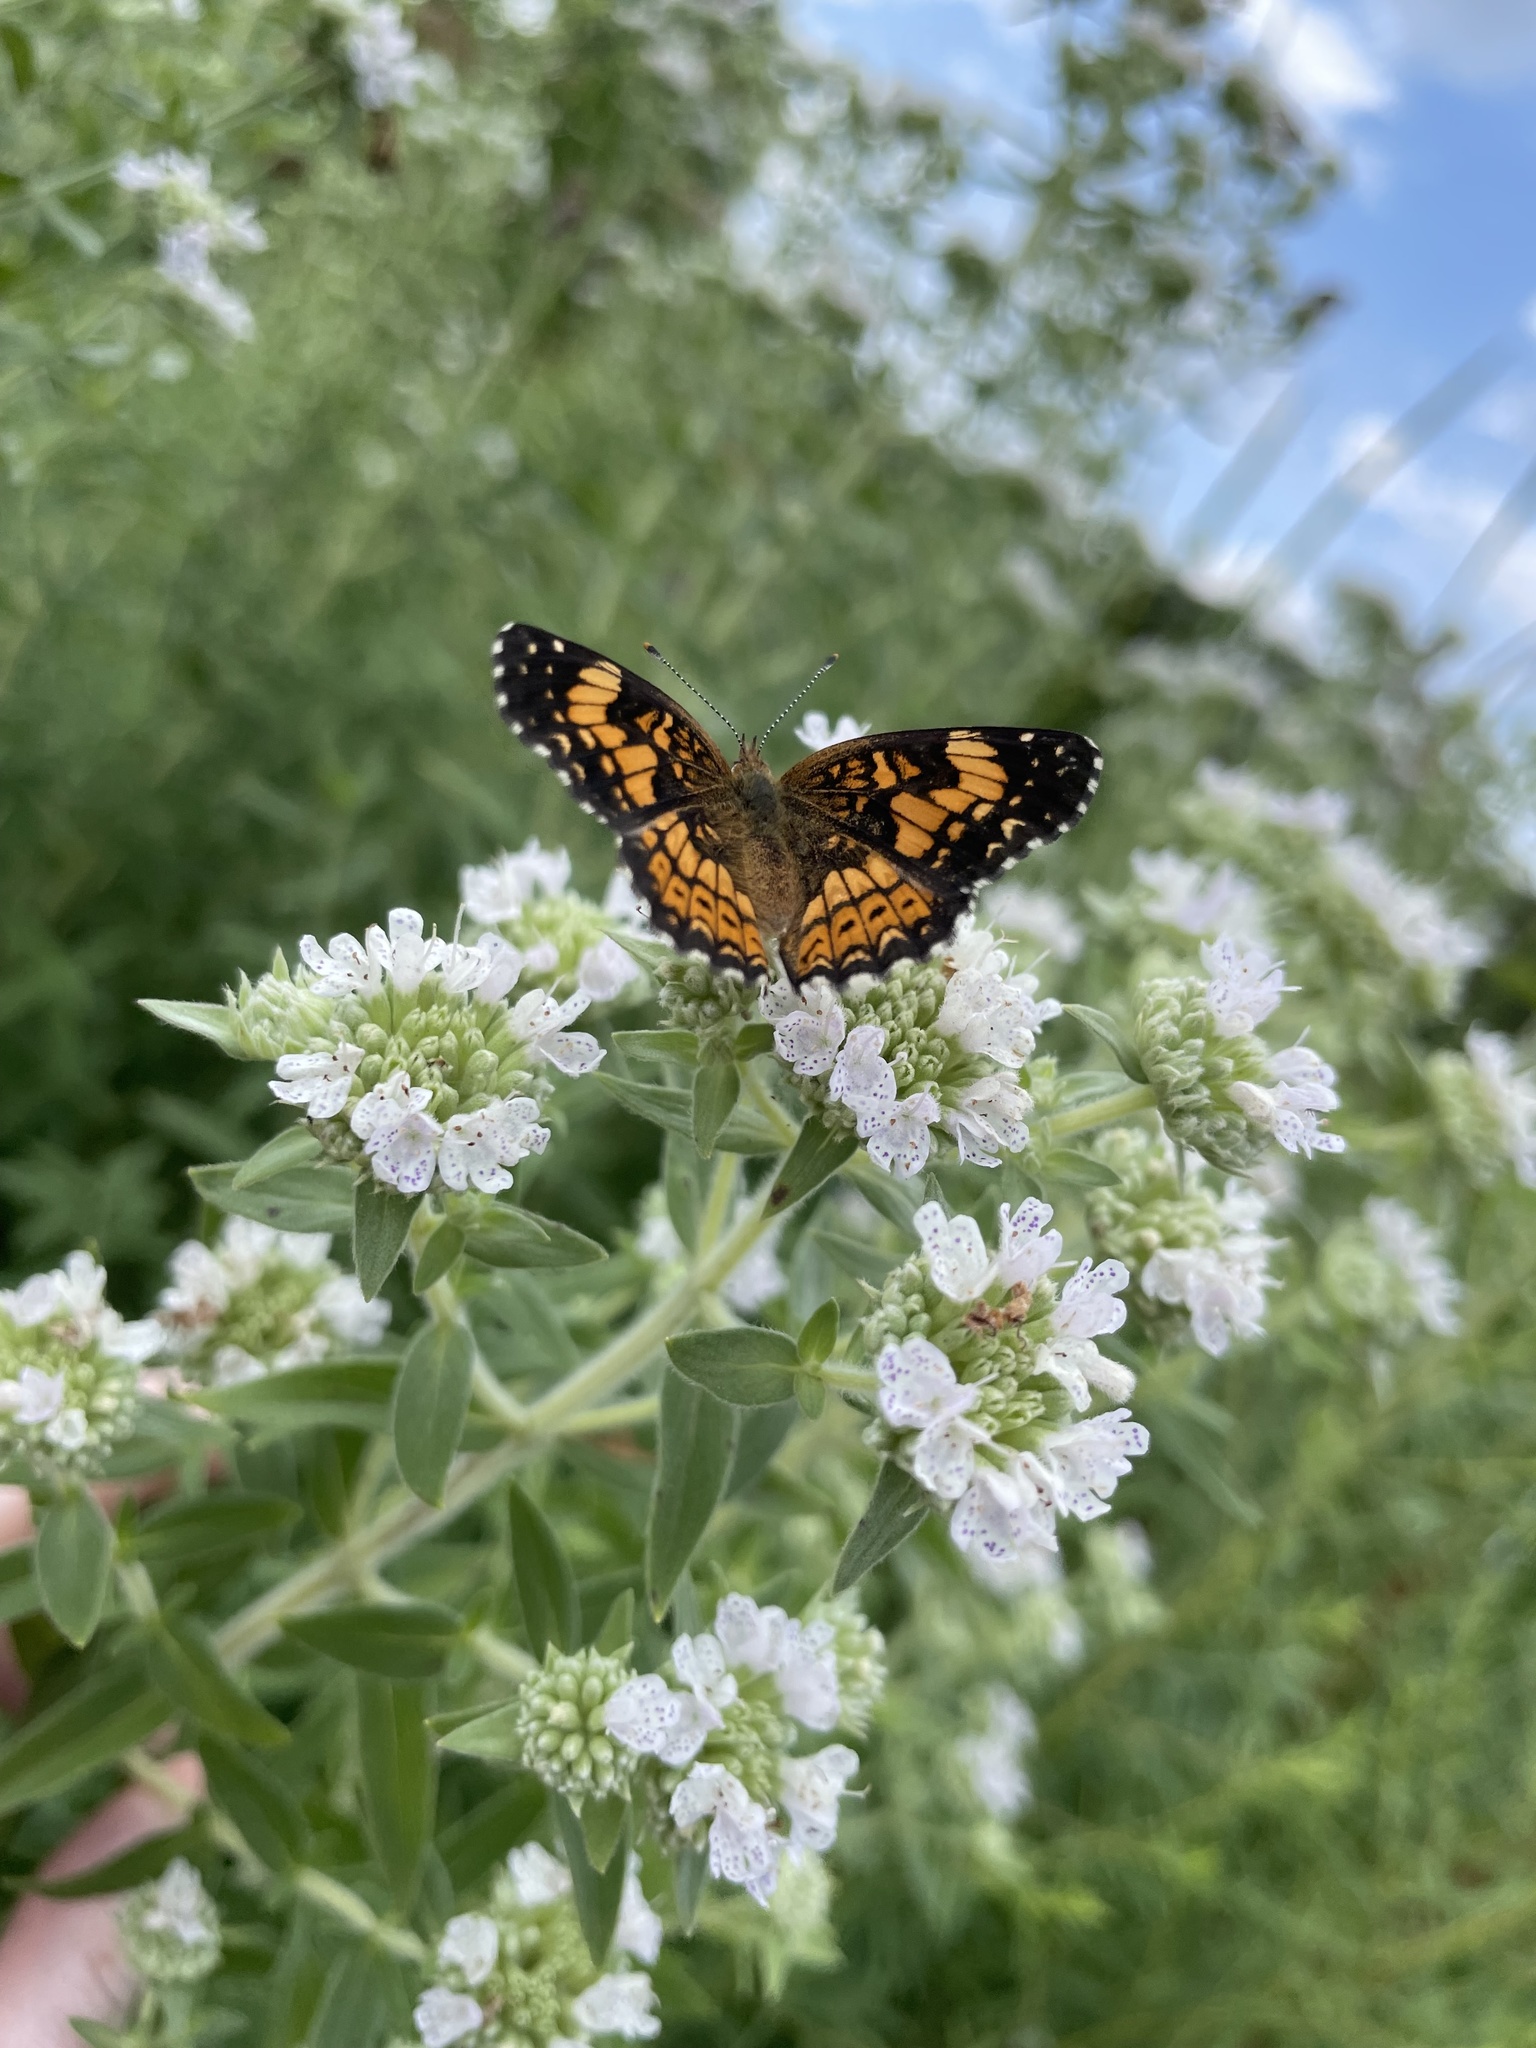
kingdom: Animalia
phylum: Arthropoda
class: Insecta
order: Lepidoptera
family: Nymphalidae
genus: Chlosyne
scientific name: Chlosyne gorgone
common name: Gorgone checkerspot
